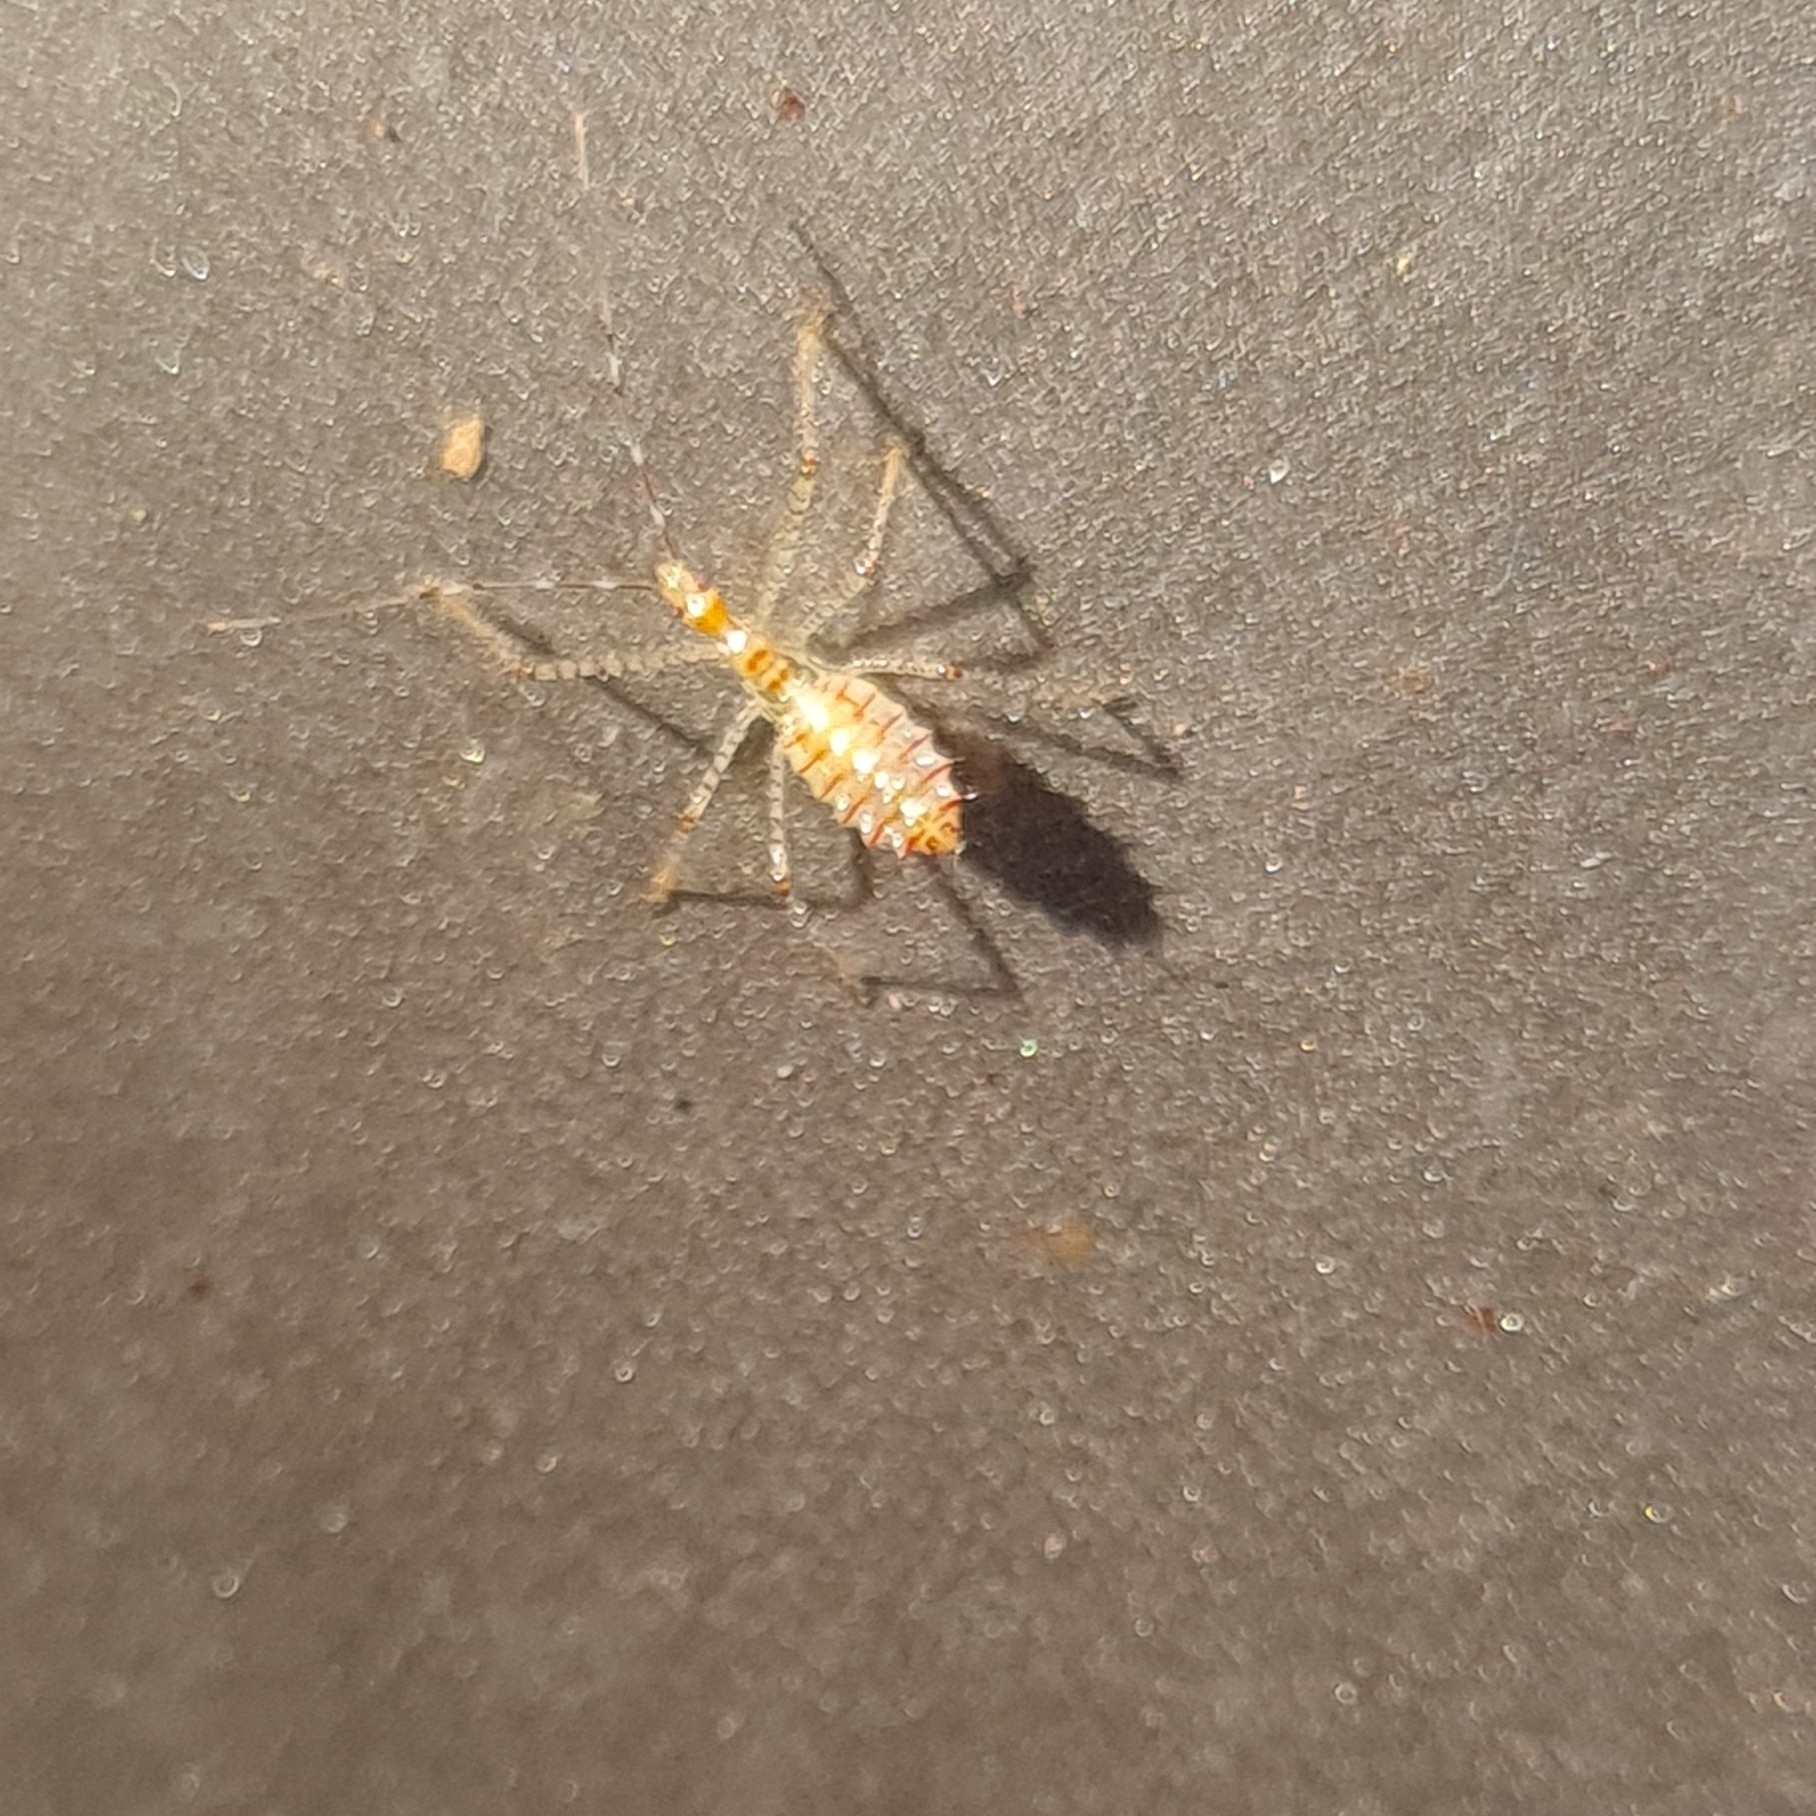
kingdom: Animalia
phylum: Arthropoda
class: Insecta
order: Hemiptera
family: Reduviidae
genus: Zelus
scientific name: Zelus renardii
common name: Assassin bug
